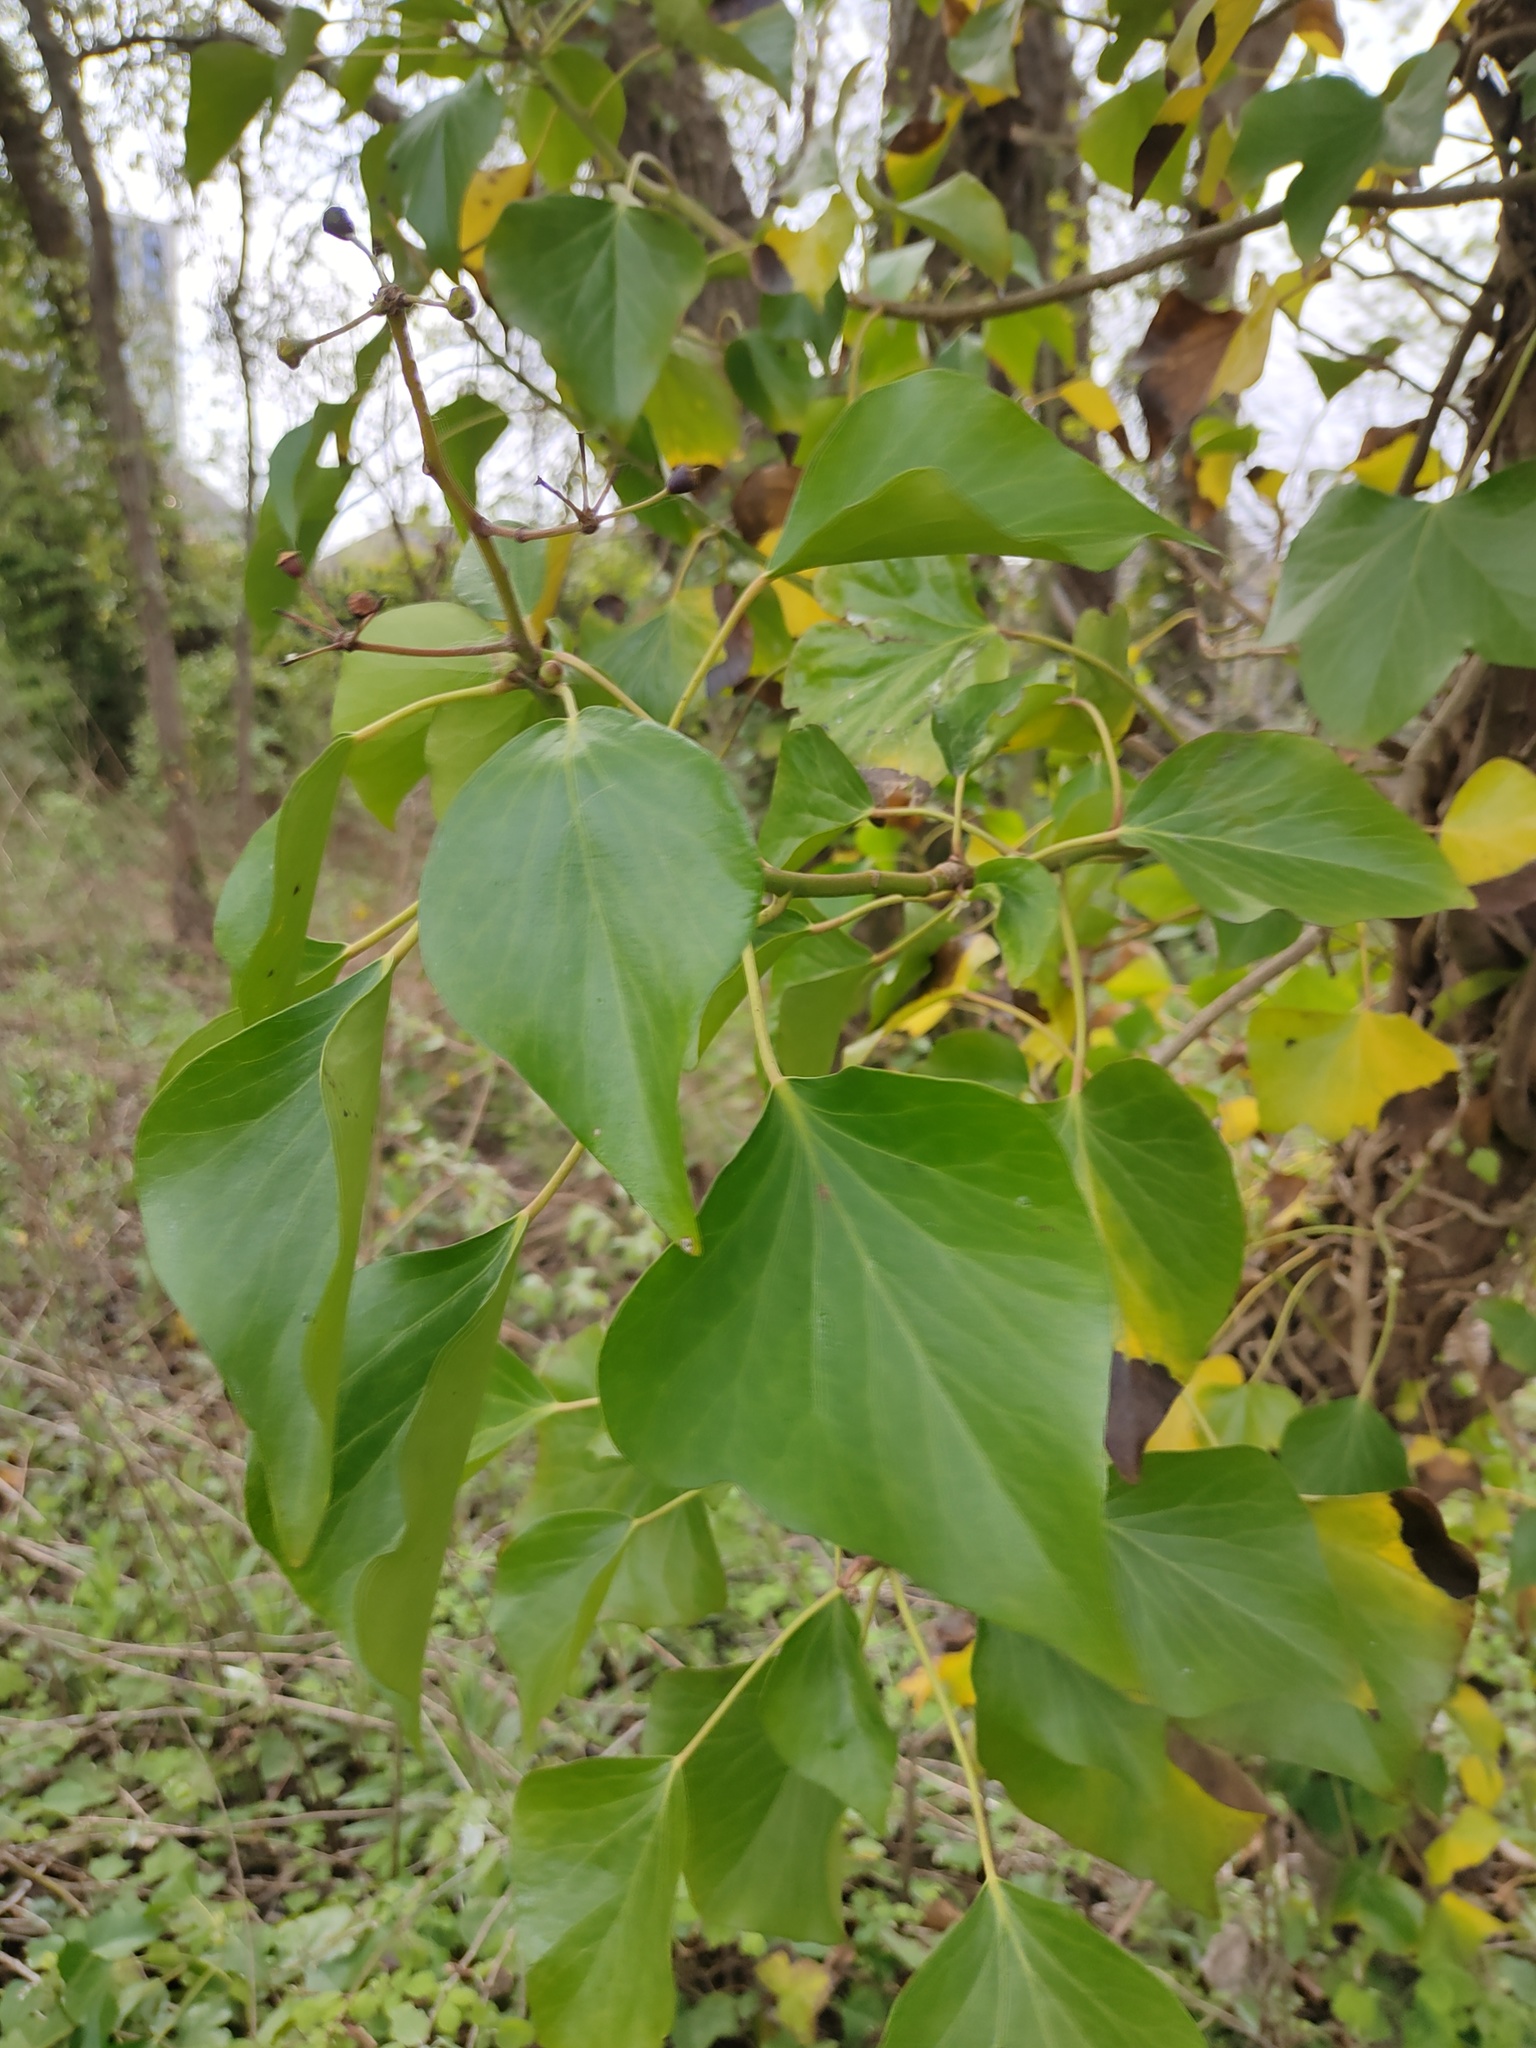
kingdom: Plantae
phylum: Tracheophyta
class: Magnoliopsida
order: Apiales
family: Araliaceae
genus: Hedera
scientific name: Hedera helix
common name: Ivy
